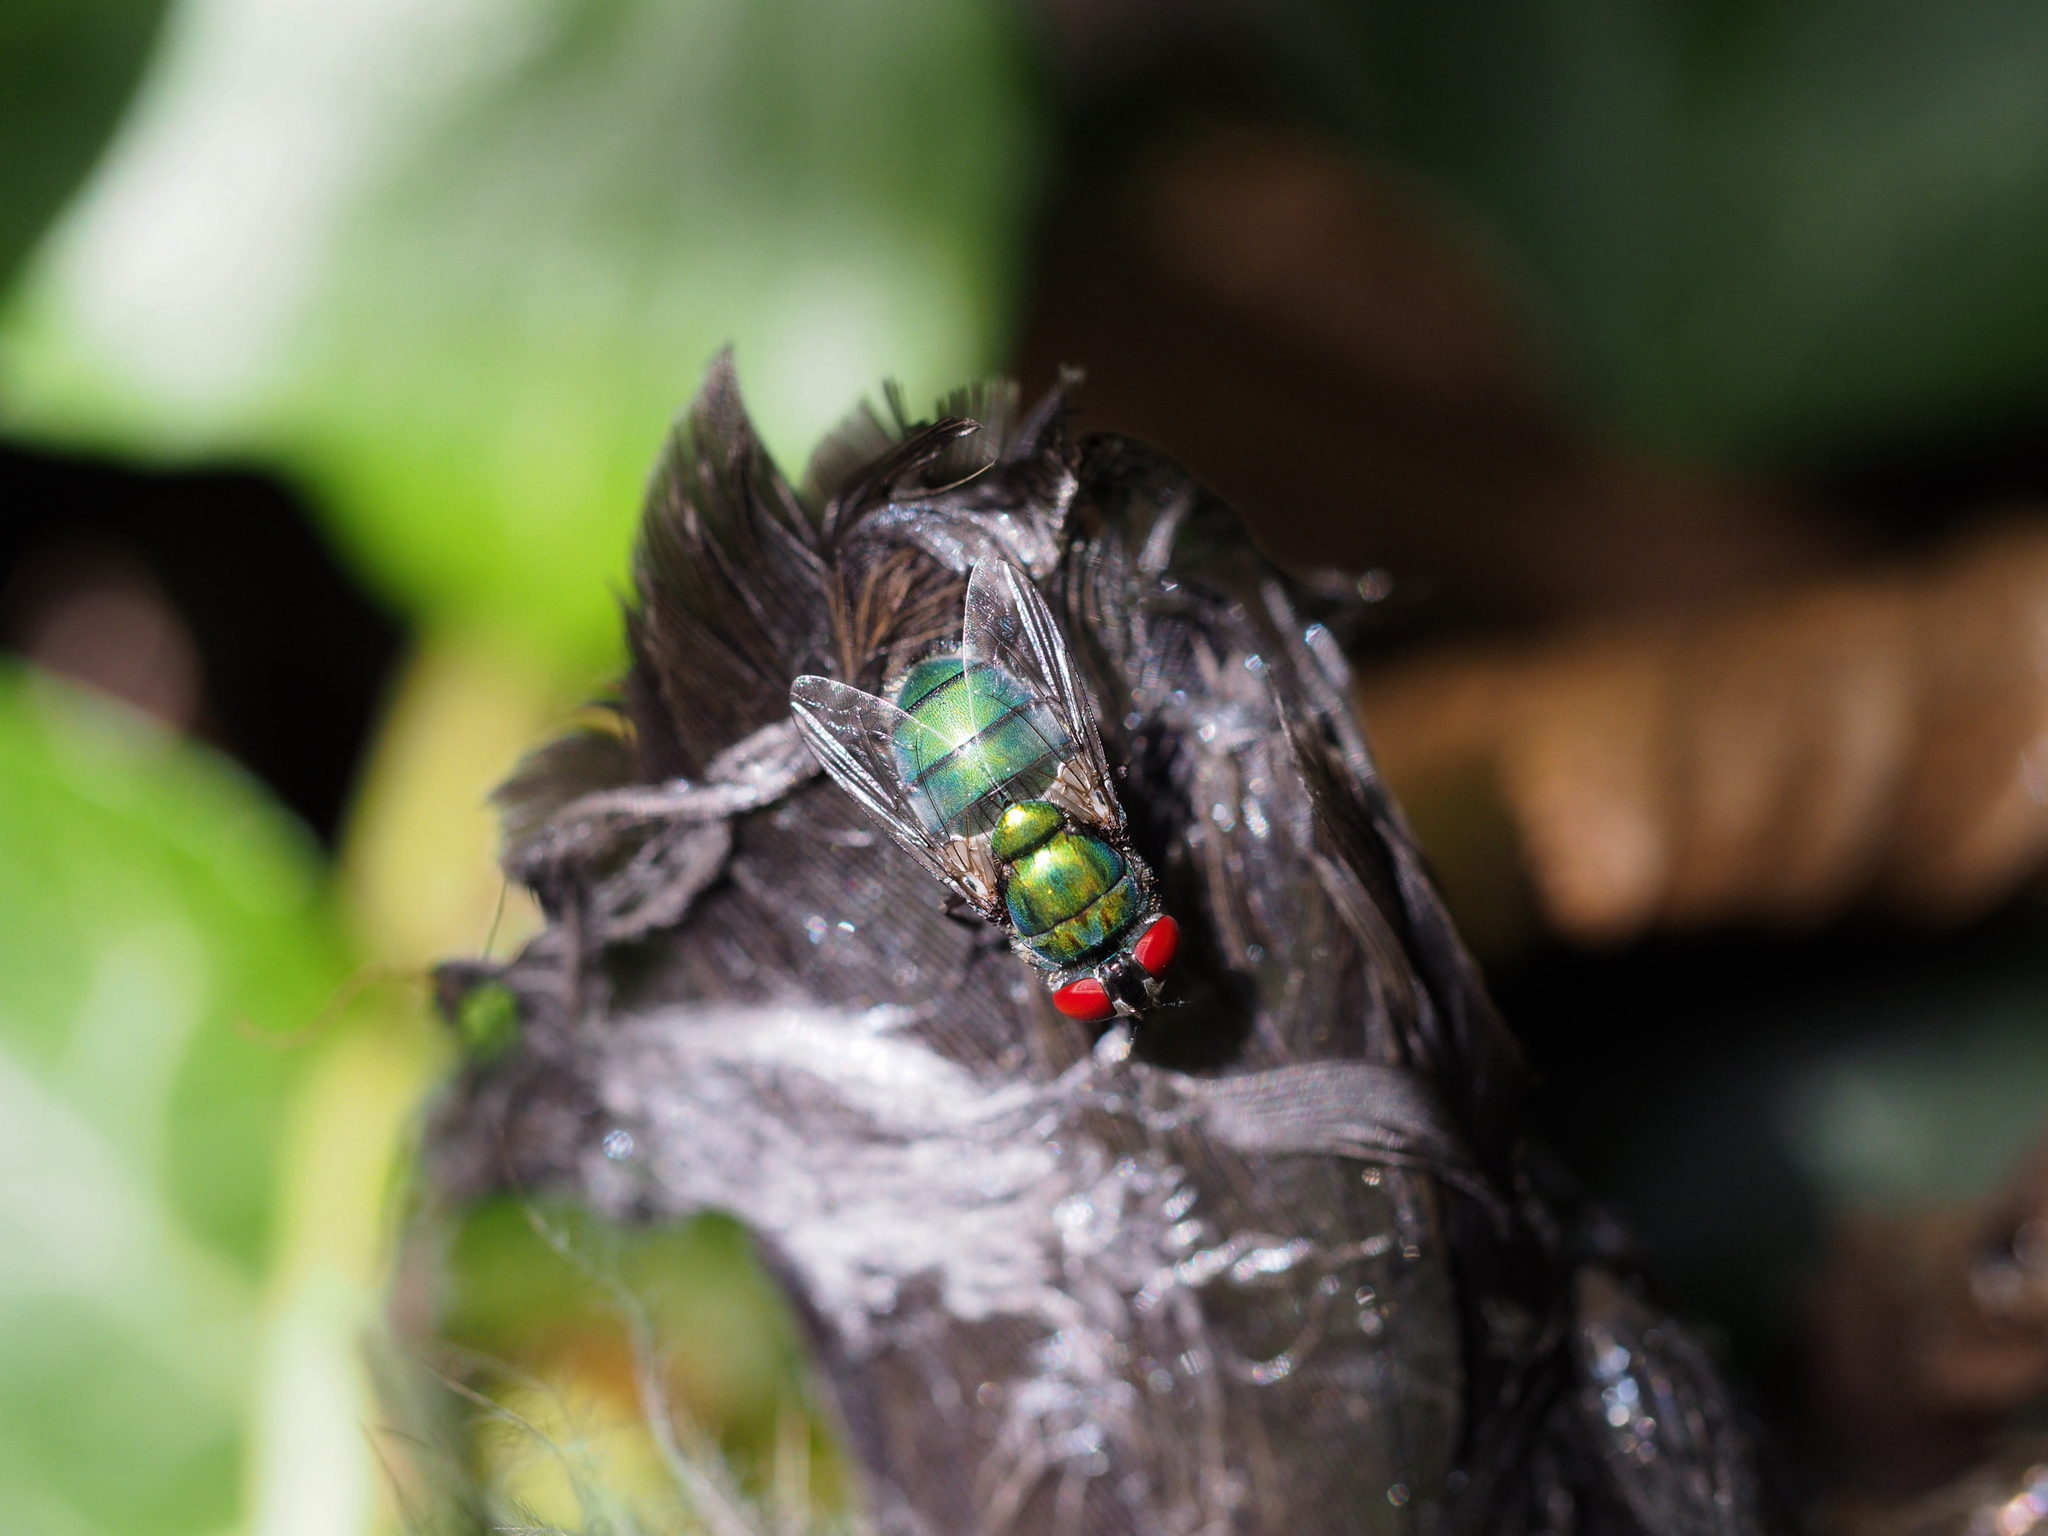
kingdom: Animalia
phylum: Arthropoda
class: Insecta
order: Diptera
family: Calliphoridae
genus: Chrysomya
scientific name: Chrysomya albiceps
